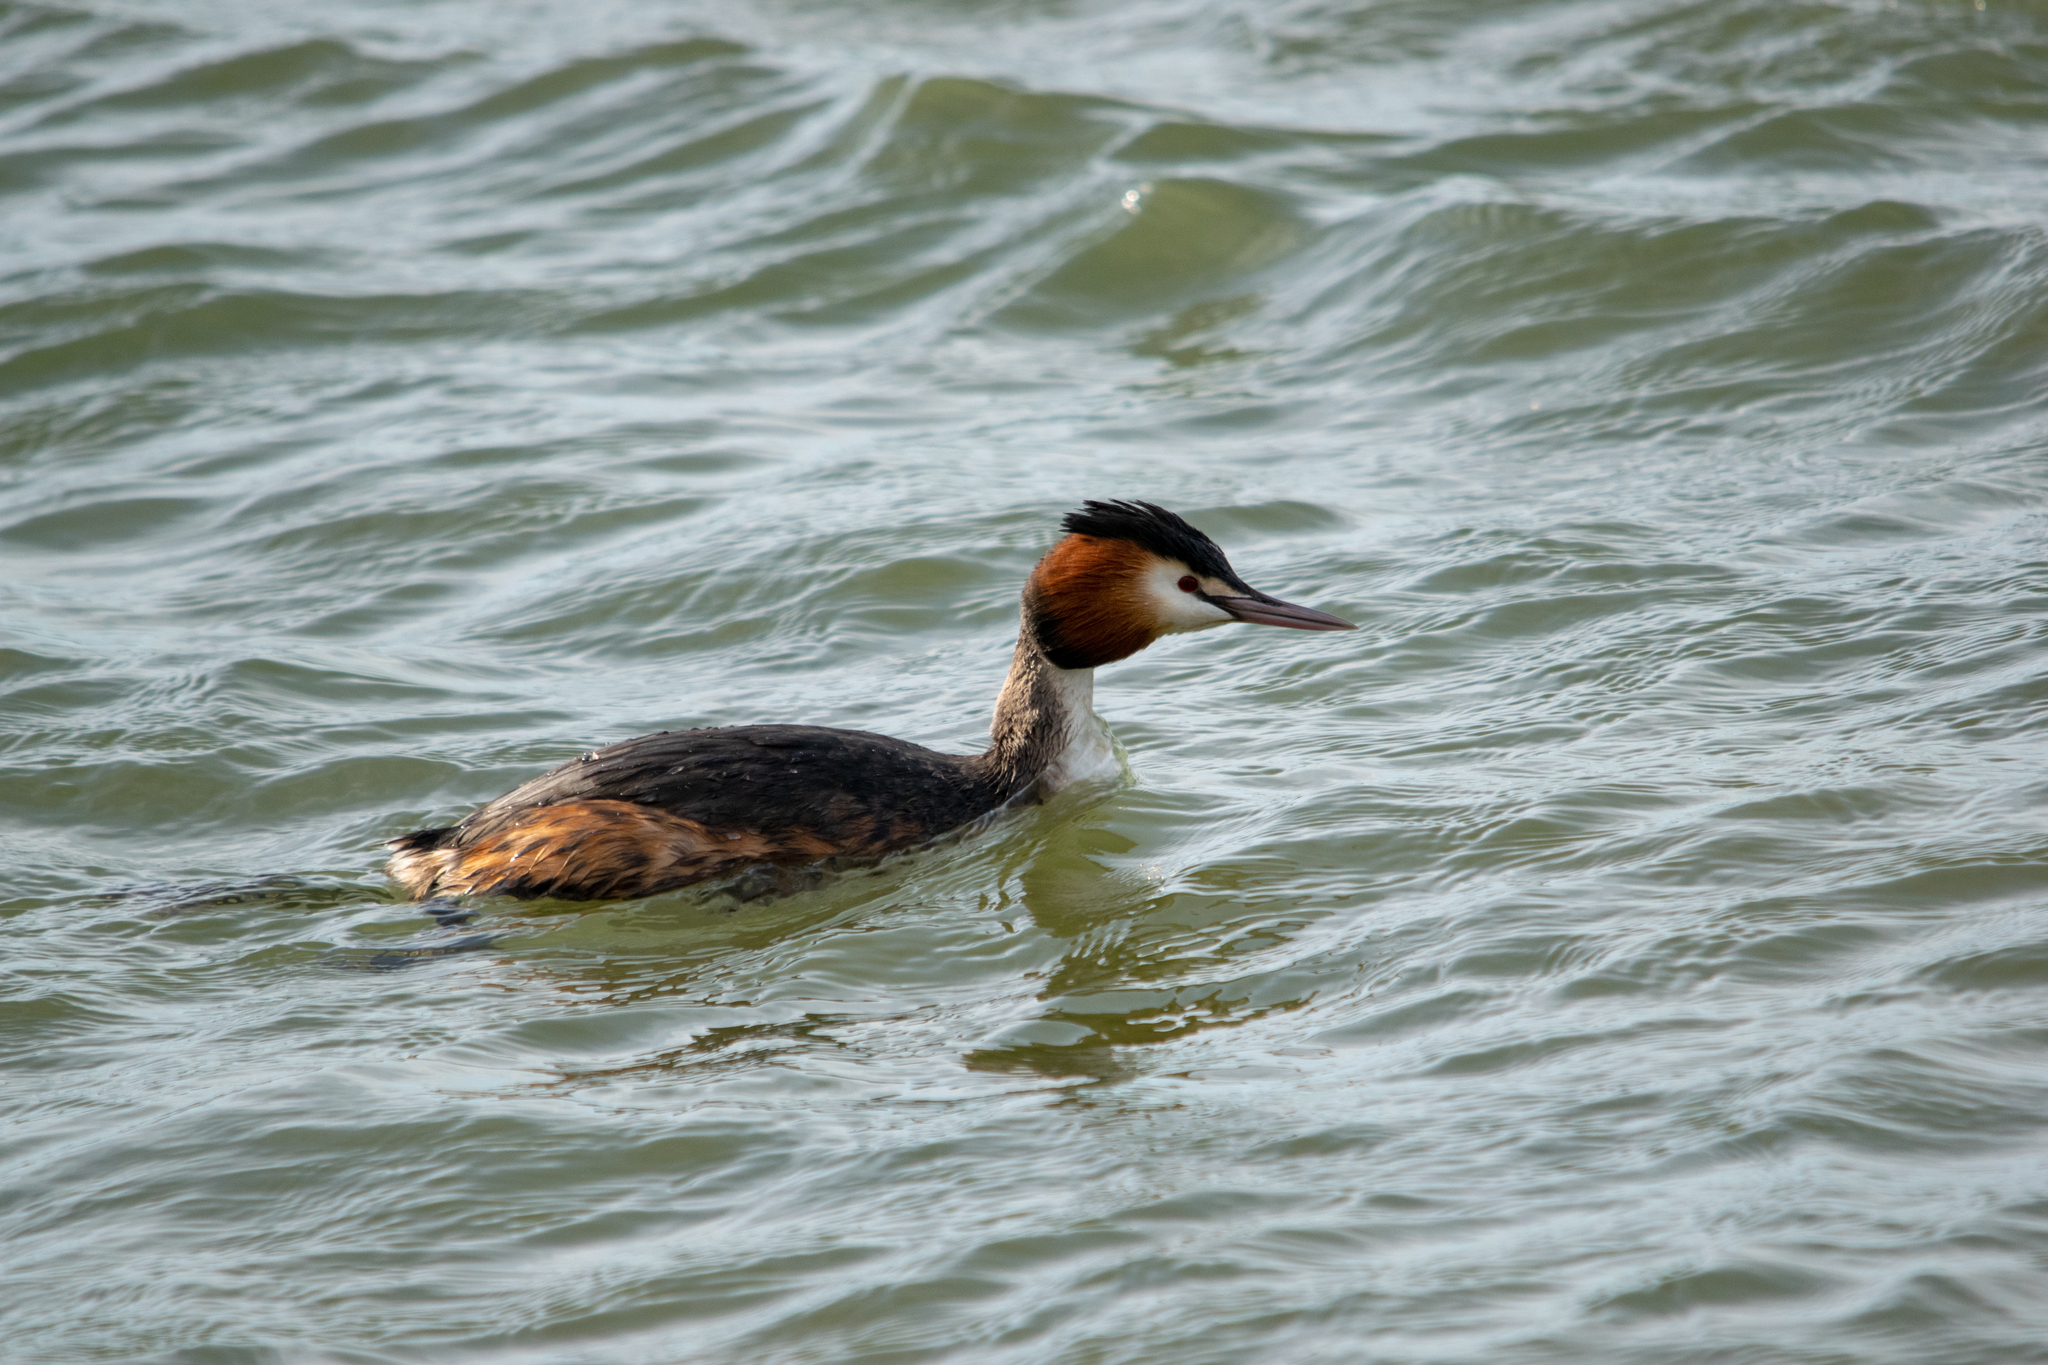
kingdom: Animalia
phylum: Chordata
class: Aves
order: Podicipediformes
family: Podicipedidae
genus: Podiceps
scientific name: Podiceps cristatus
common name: Great crested grebe
